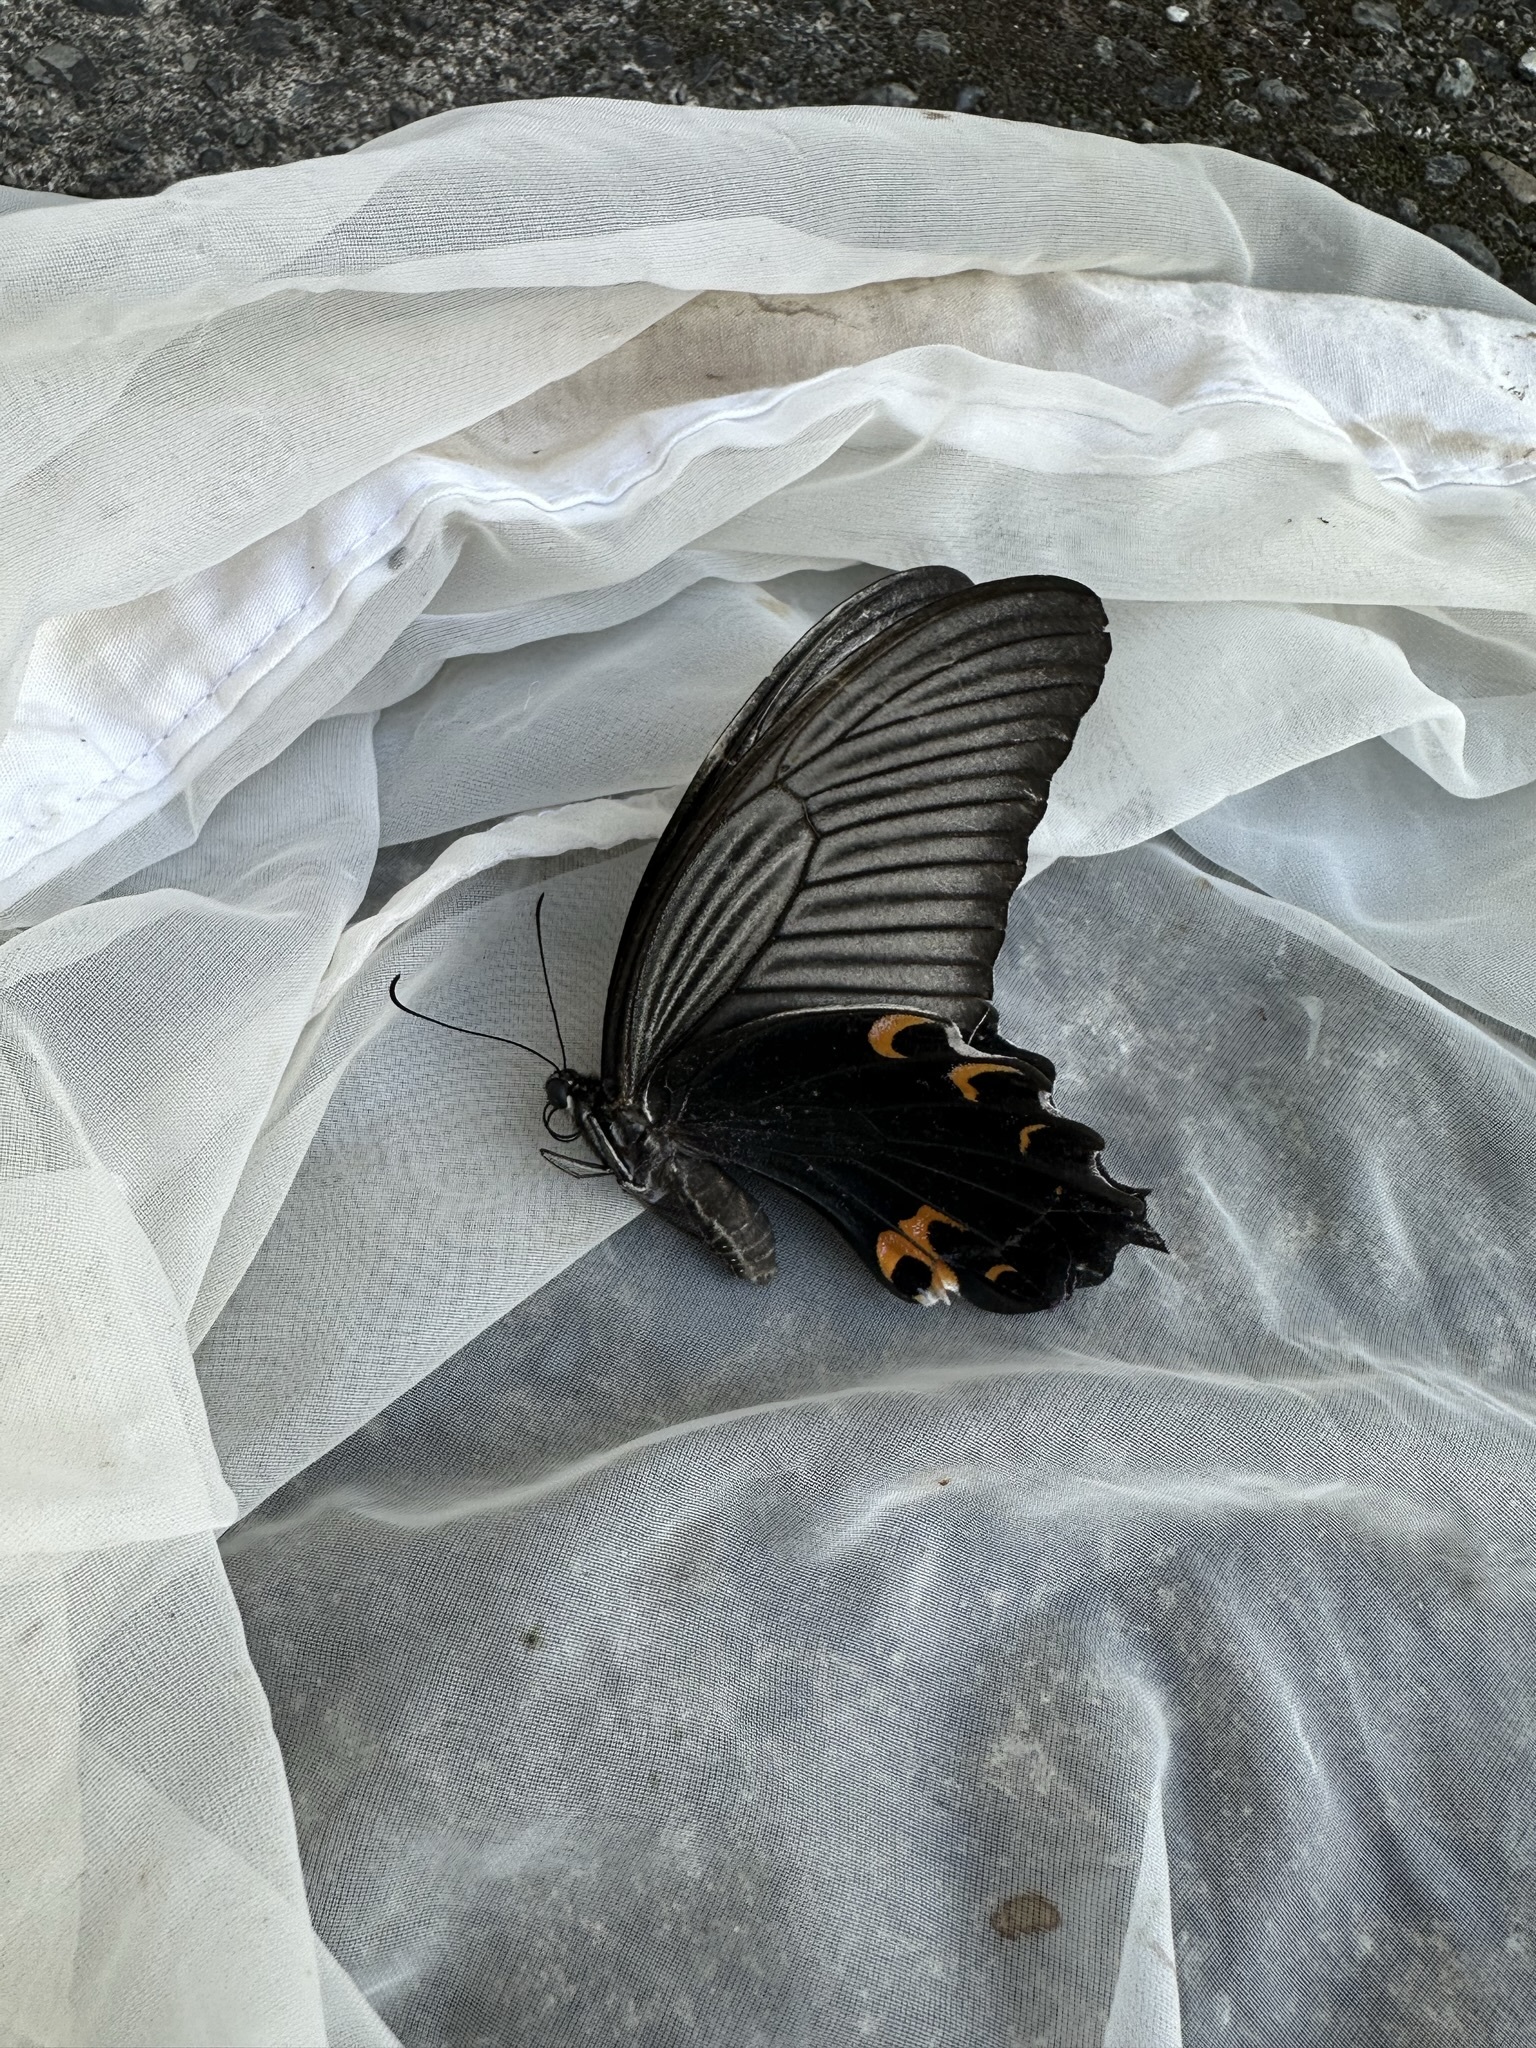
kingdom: Animalia
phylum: Arthropoda
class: Insecta
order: Lepidoptera
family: Papilionidae
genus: Papilio
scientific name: Papilio demetrius
